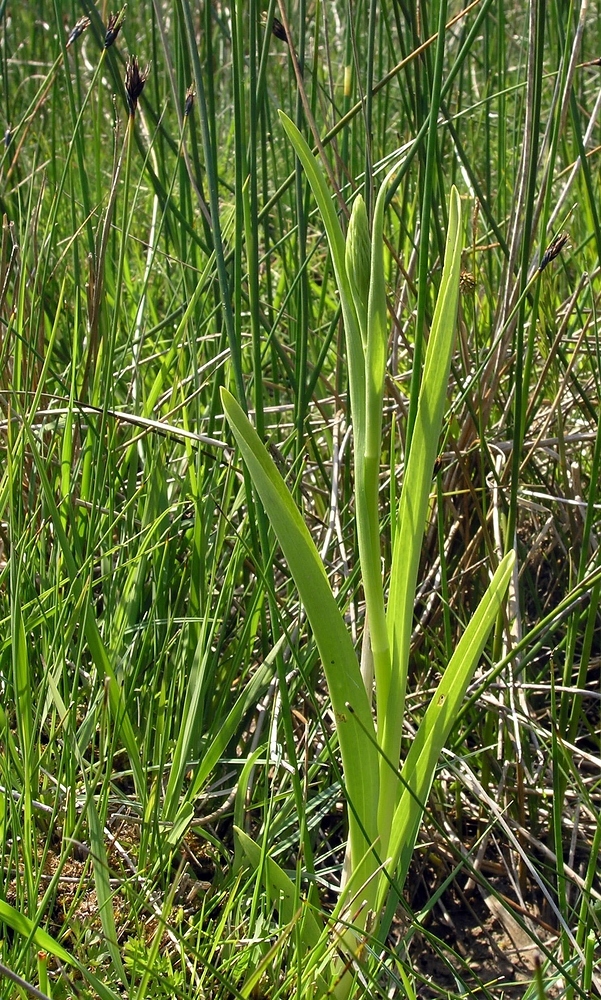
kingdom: Plantae
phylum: Tracheophyta
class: Liliopsida
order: Asparagales
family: Orchidaceae
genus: Anacamptis
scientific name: Anacamptis palustris
